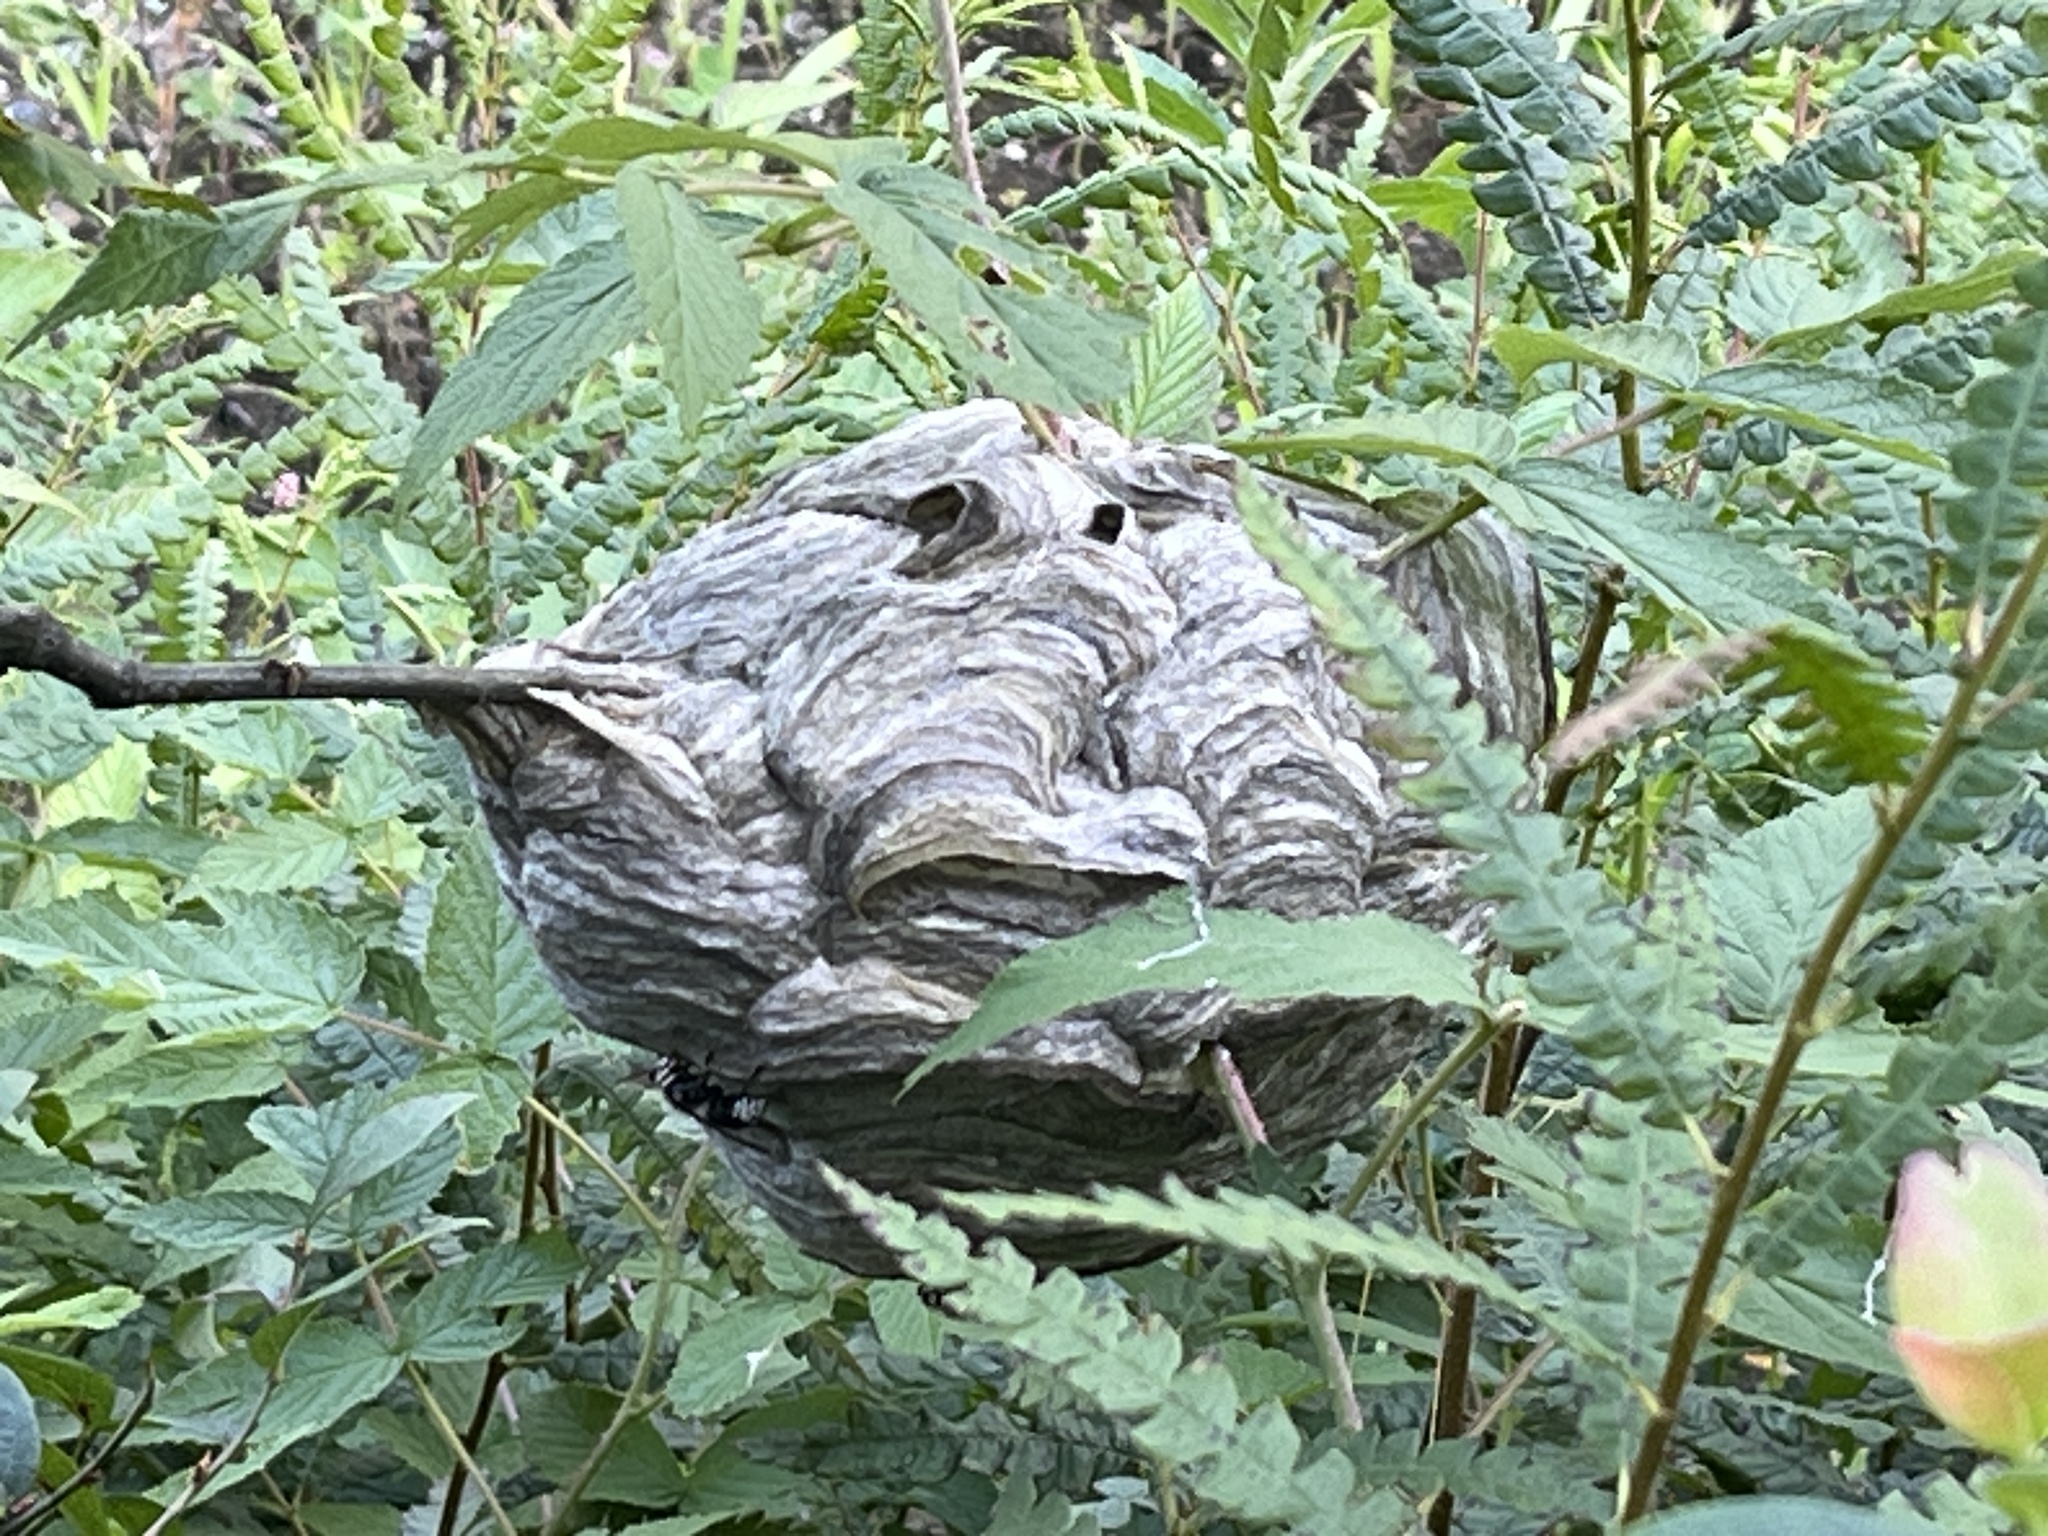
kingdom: Animalia
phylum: Arthropoda
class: Insecta
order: Hymenoptera
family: Vespidae
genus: Dolichovespula
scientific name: Dolichovespula maculata
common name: Bald-faced hornet
